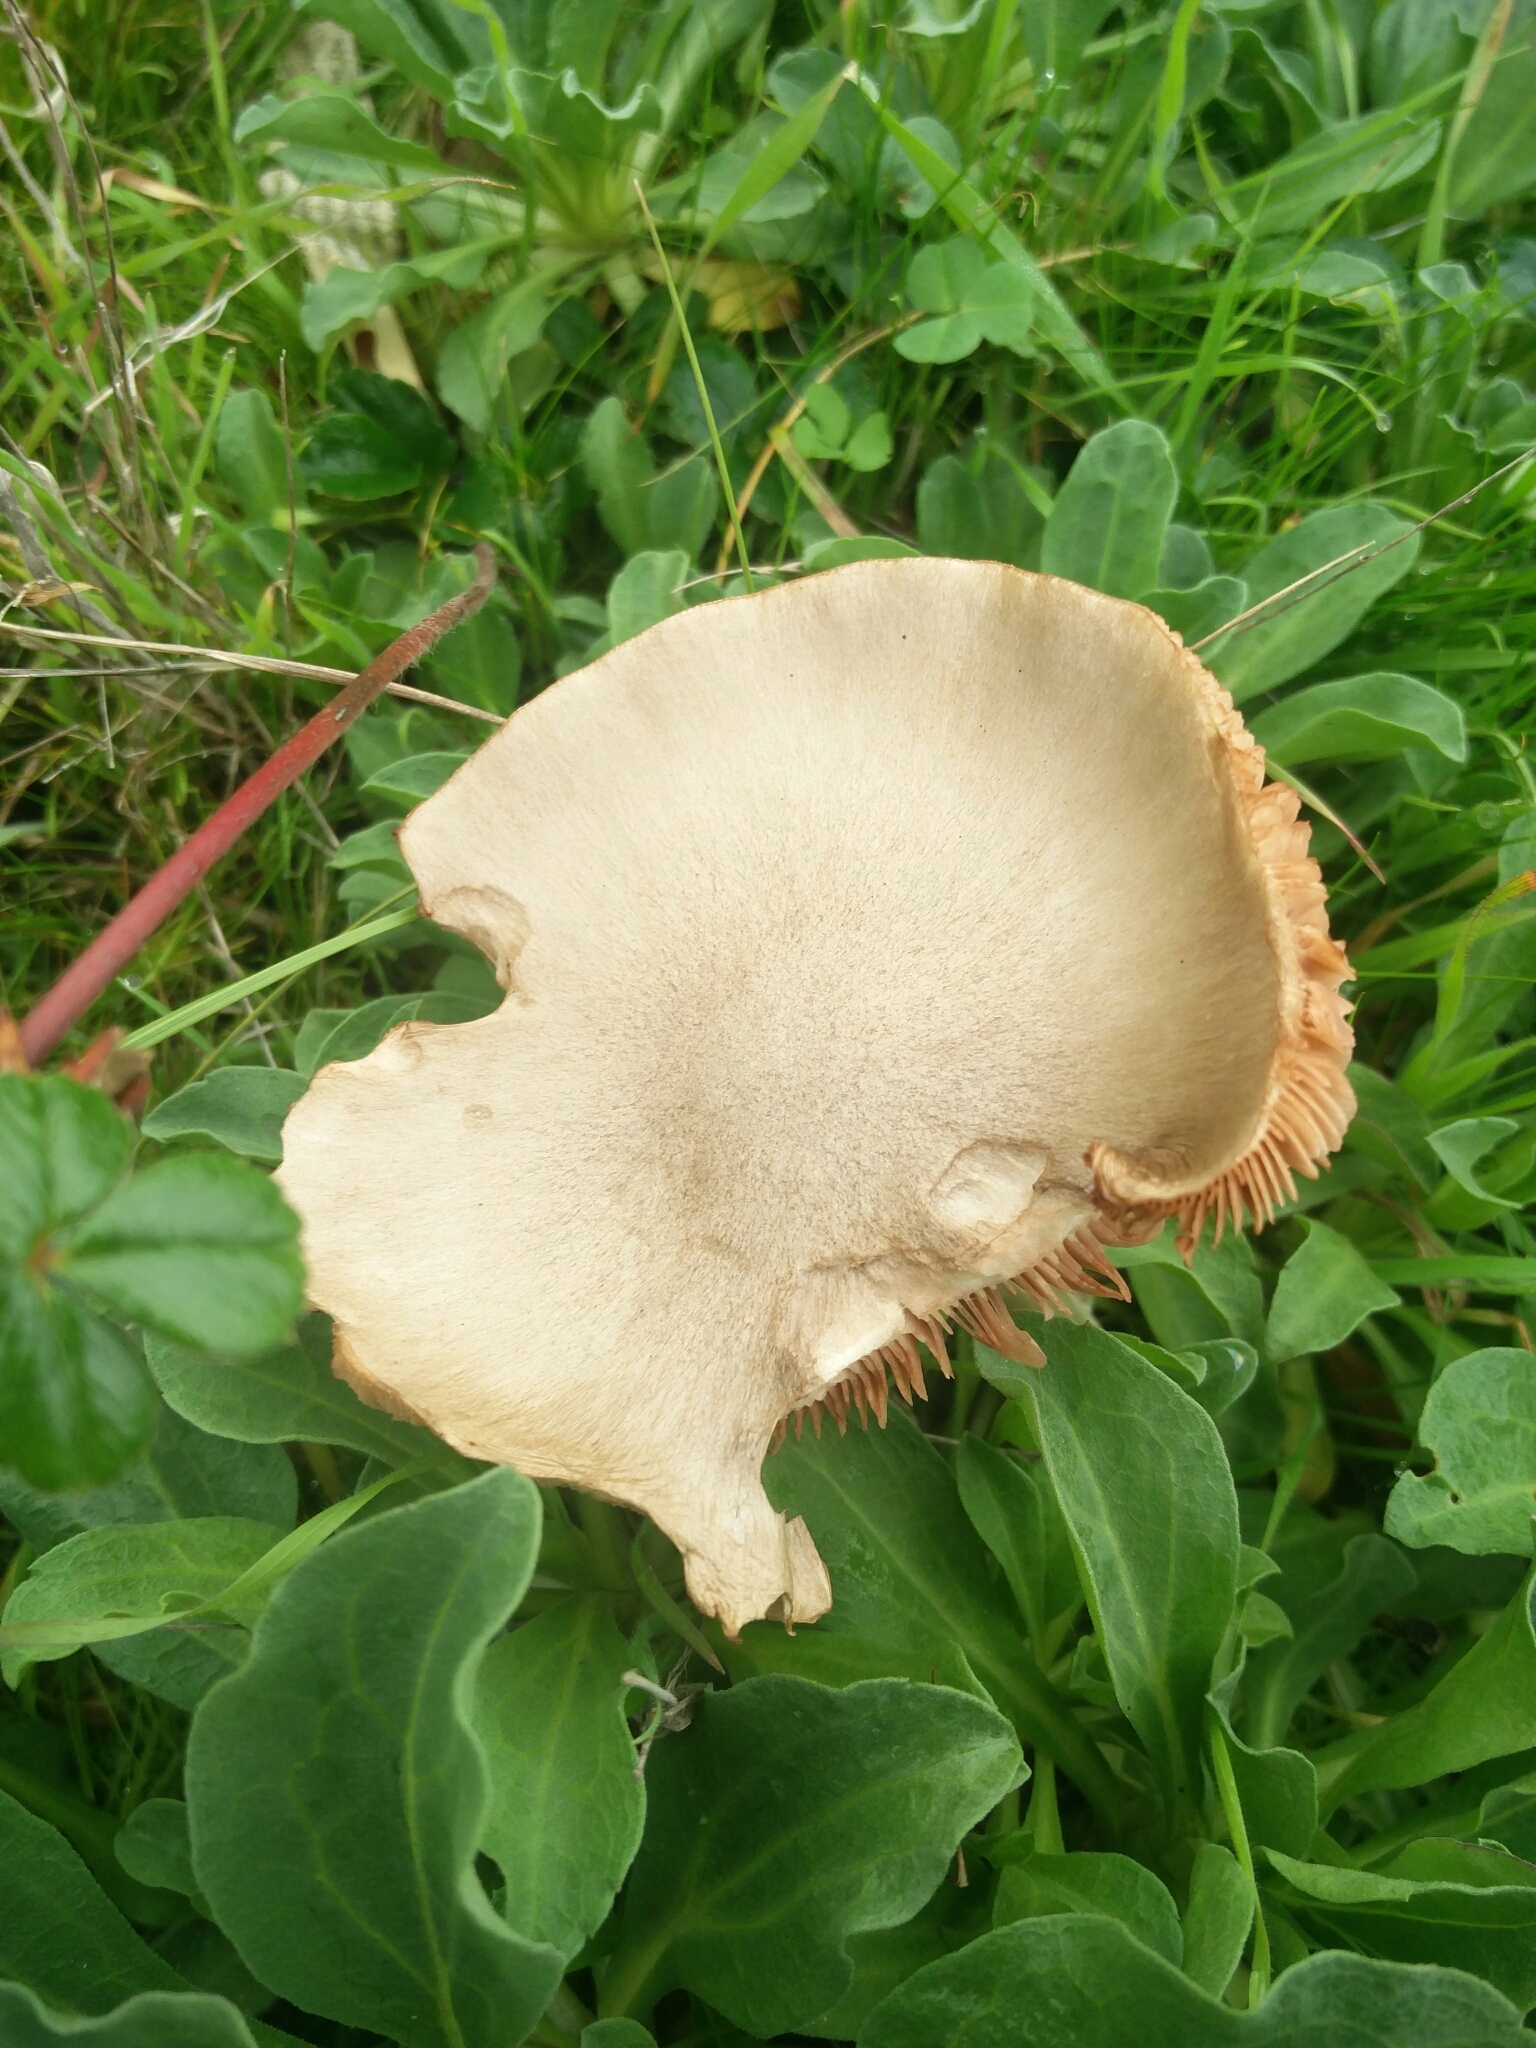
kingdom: Fungi
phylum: Basidiomycota
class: Agaricomycetes
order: Agaricales
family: Pluteaceae
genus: Volvopluteus
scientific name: Volvopluteus gloiocephalus
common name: Stubble rosegill
